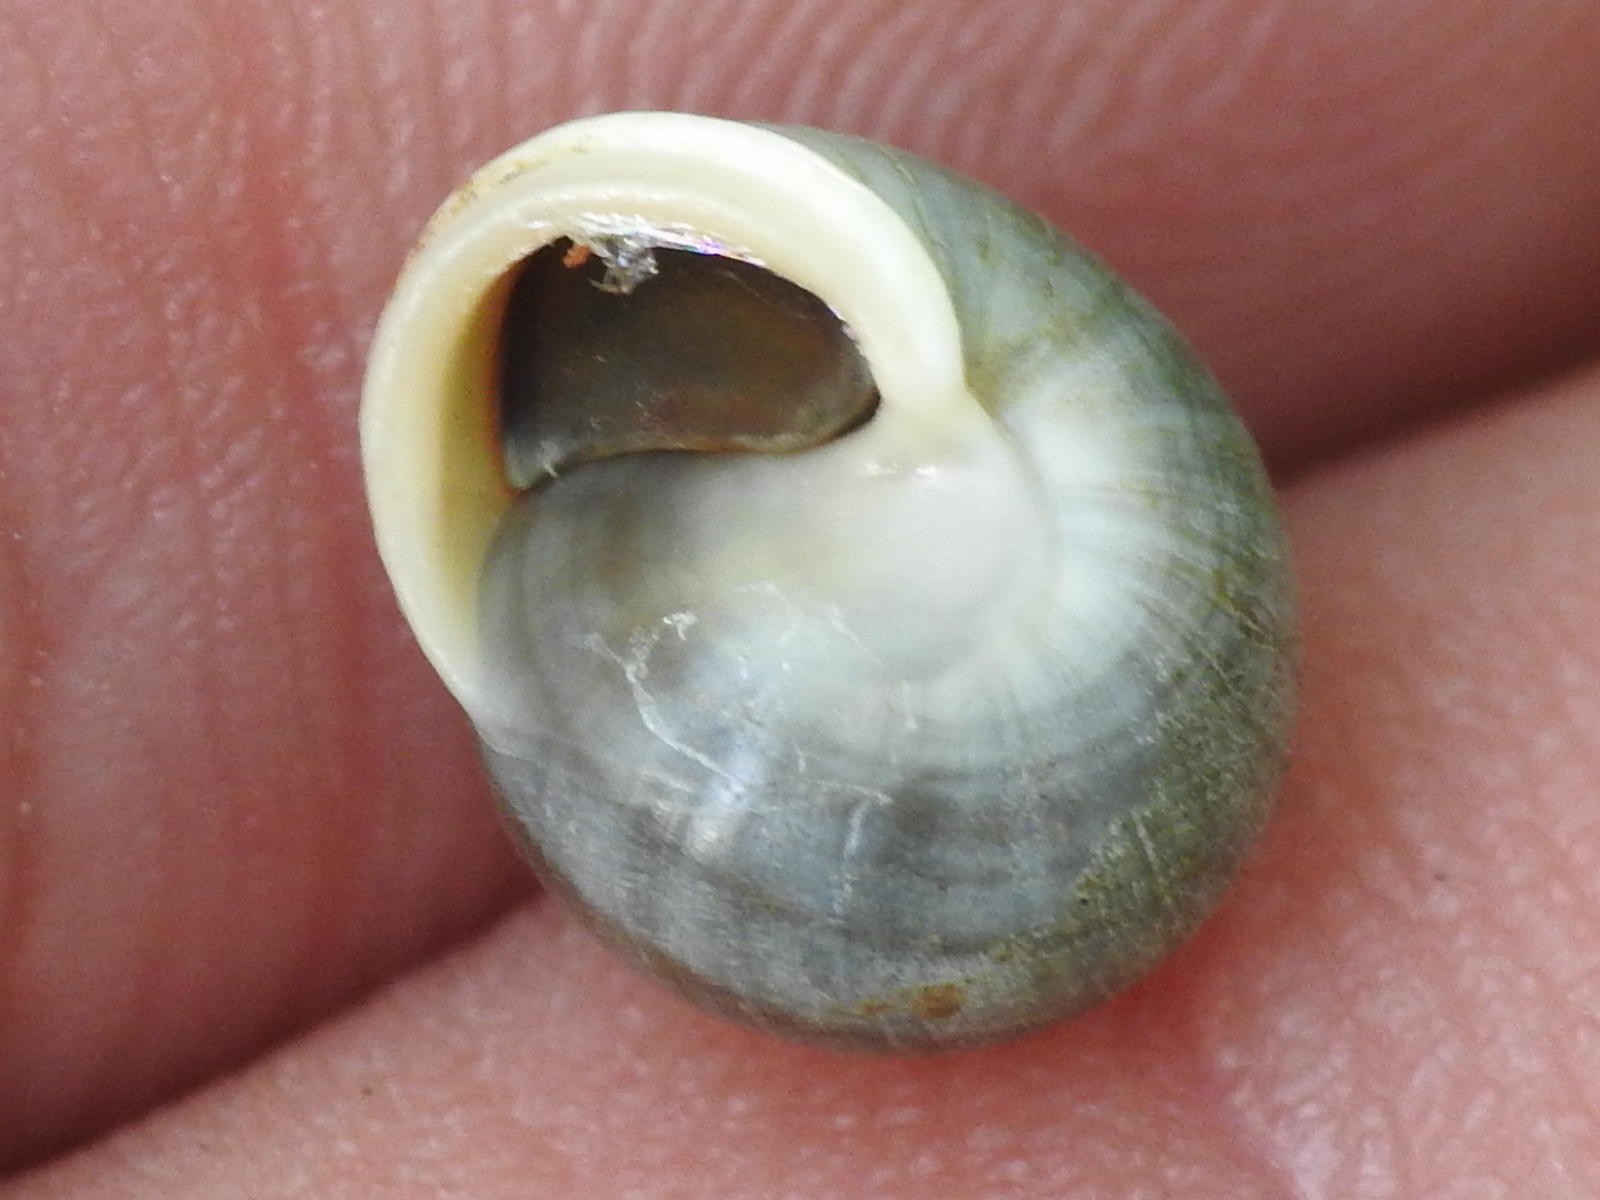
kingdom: Animalia
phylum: Mollusca
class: Gastropoda
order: Cycloneritida
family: Helicinidae
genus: Helicina
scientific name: Helicina orbiculata
